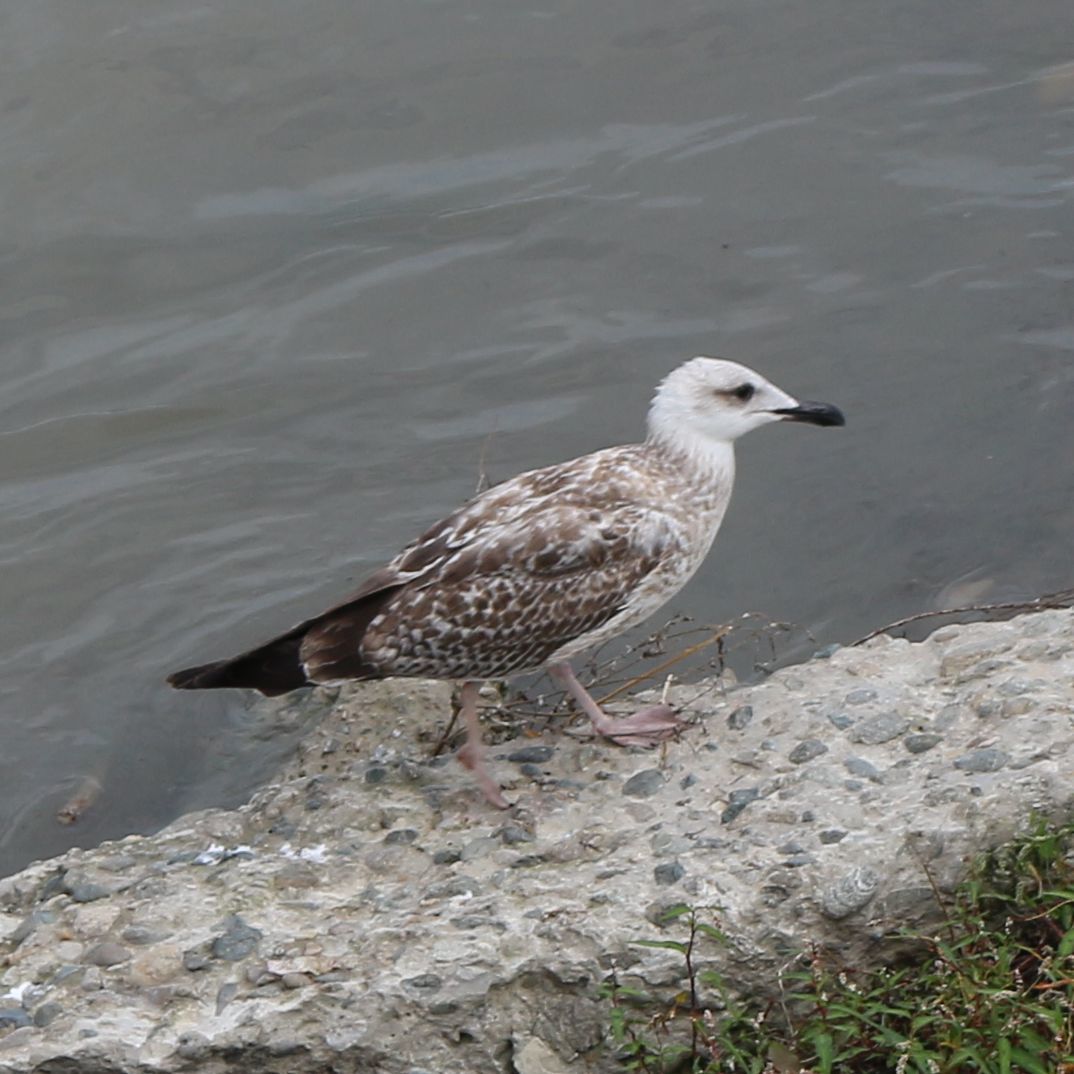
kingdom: Animalia
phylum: Chordata
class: Aves
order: Charadriiformes
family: Laridae
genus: Larus
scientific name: Larus michahellis
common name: Yellow-legged gull
